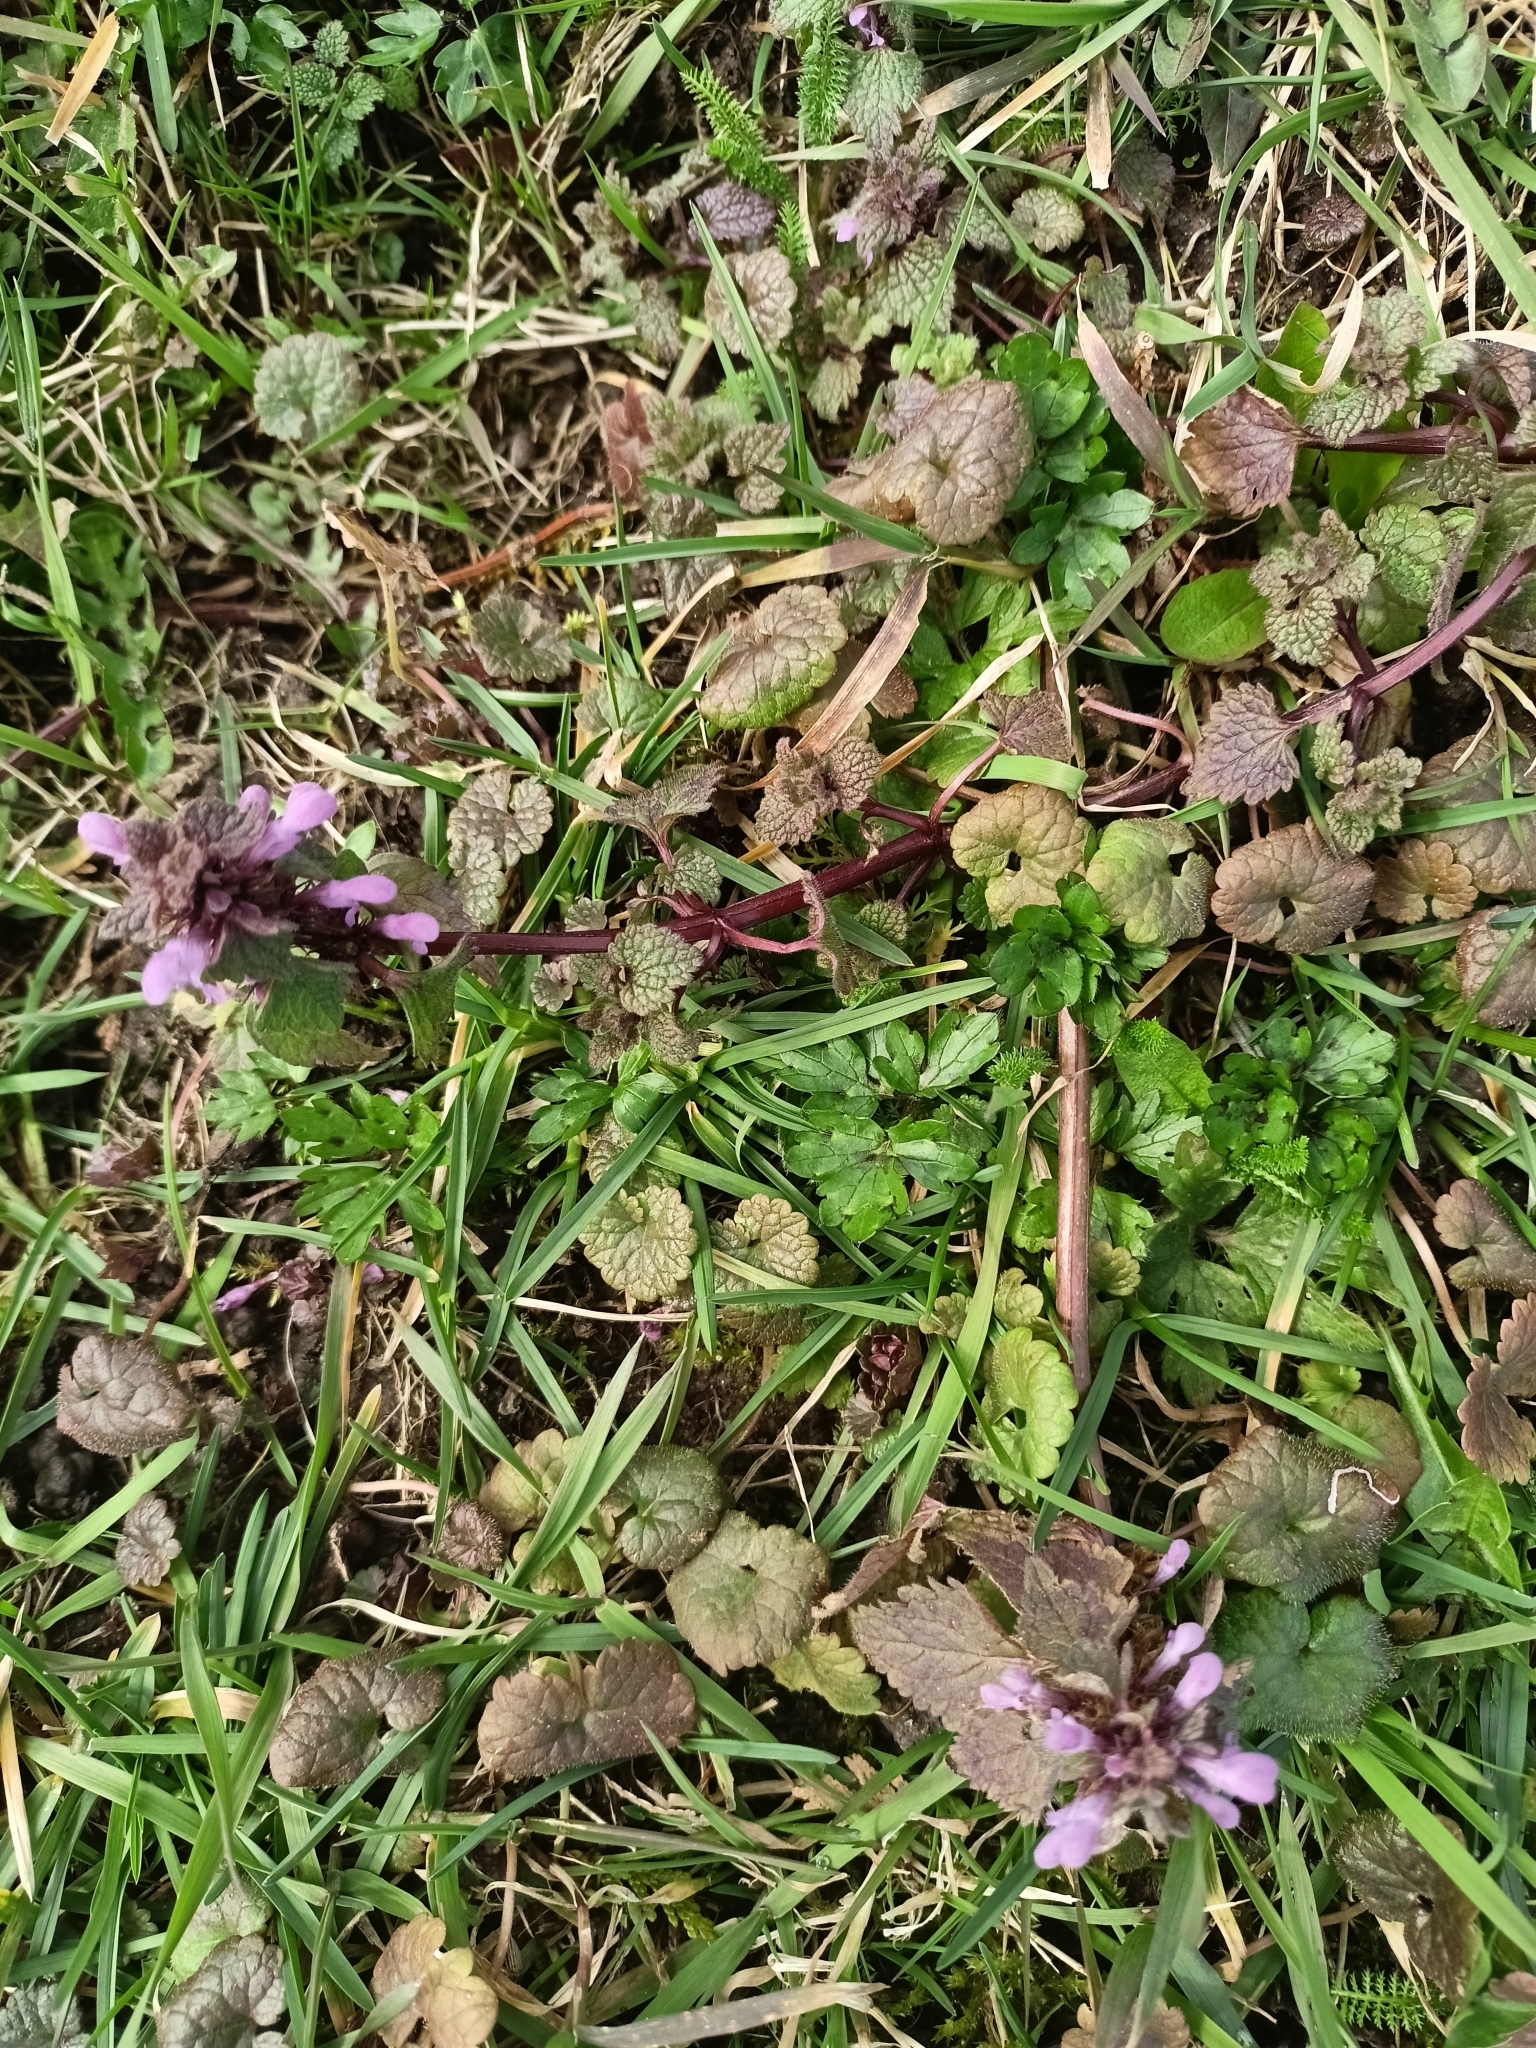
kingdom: Plantae
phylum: Tracheophyta
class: Magnoliopsida
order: Lamiales
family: Lamiaceae
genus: Lamium
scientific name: Lamium purpureum
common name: Red dead-nettle
